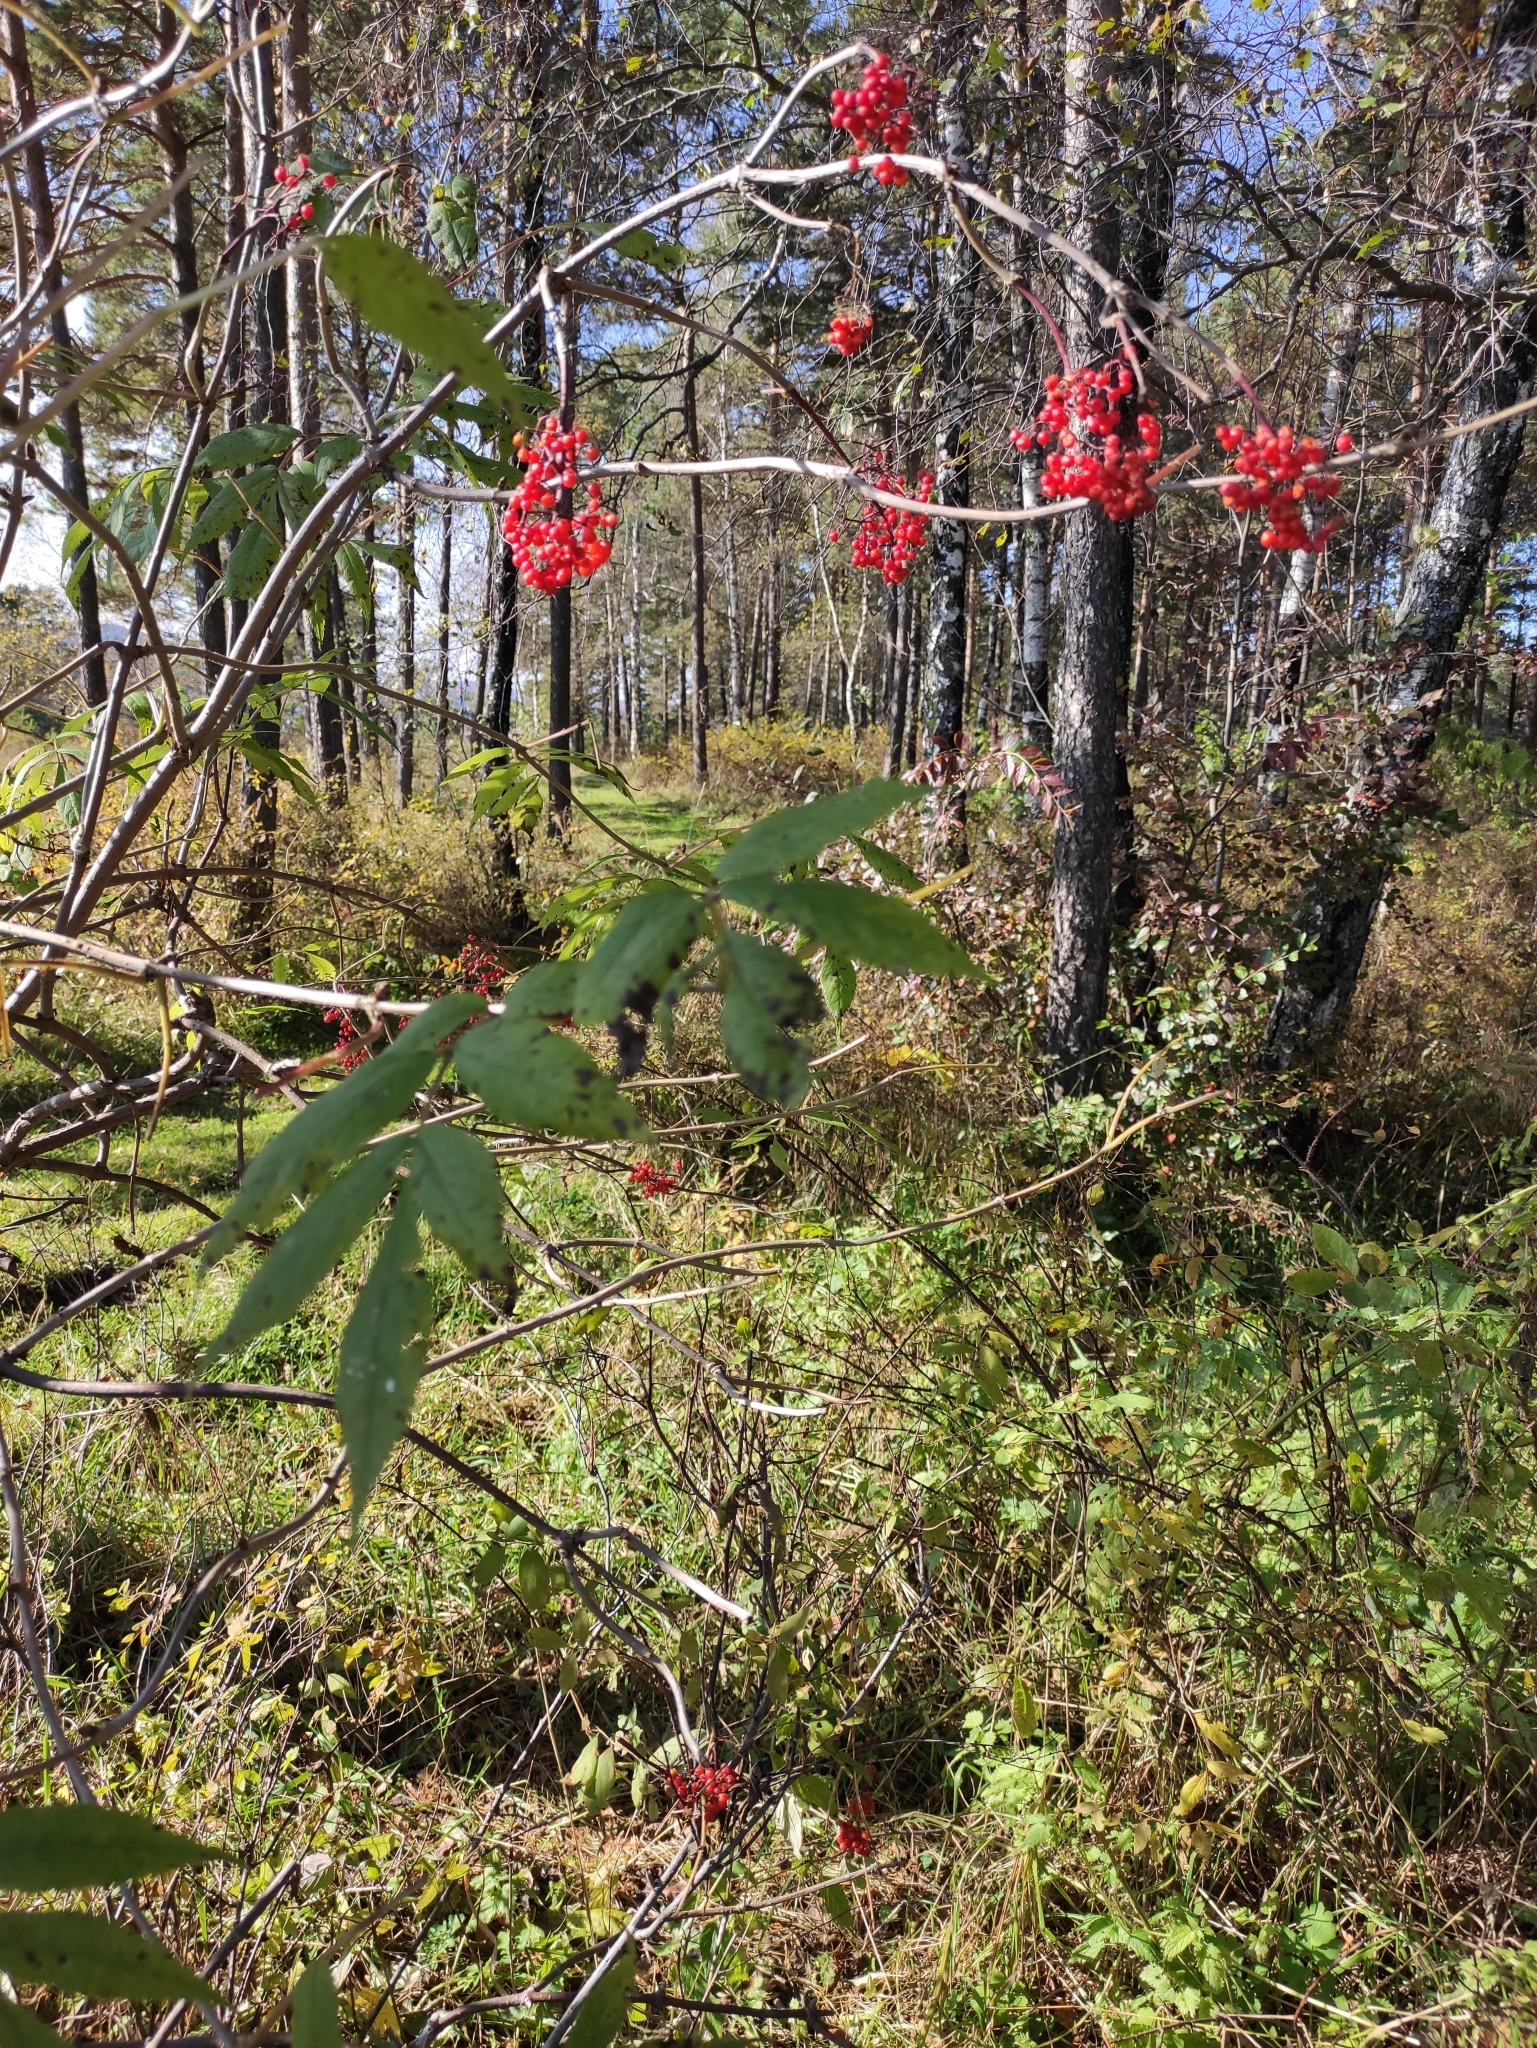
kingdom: Plantae
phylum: Tracheophyta
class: Magnoliopsida
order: Dipsacales
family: Viburnaceae
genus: Sambucus
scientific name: Sambucus sibirica
